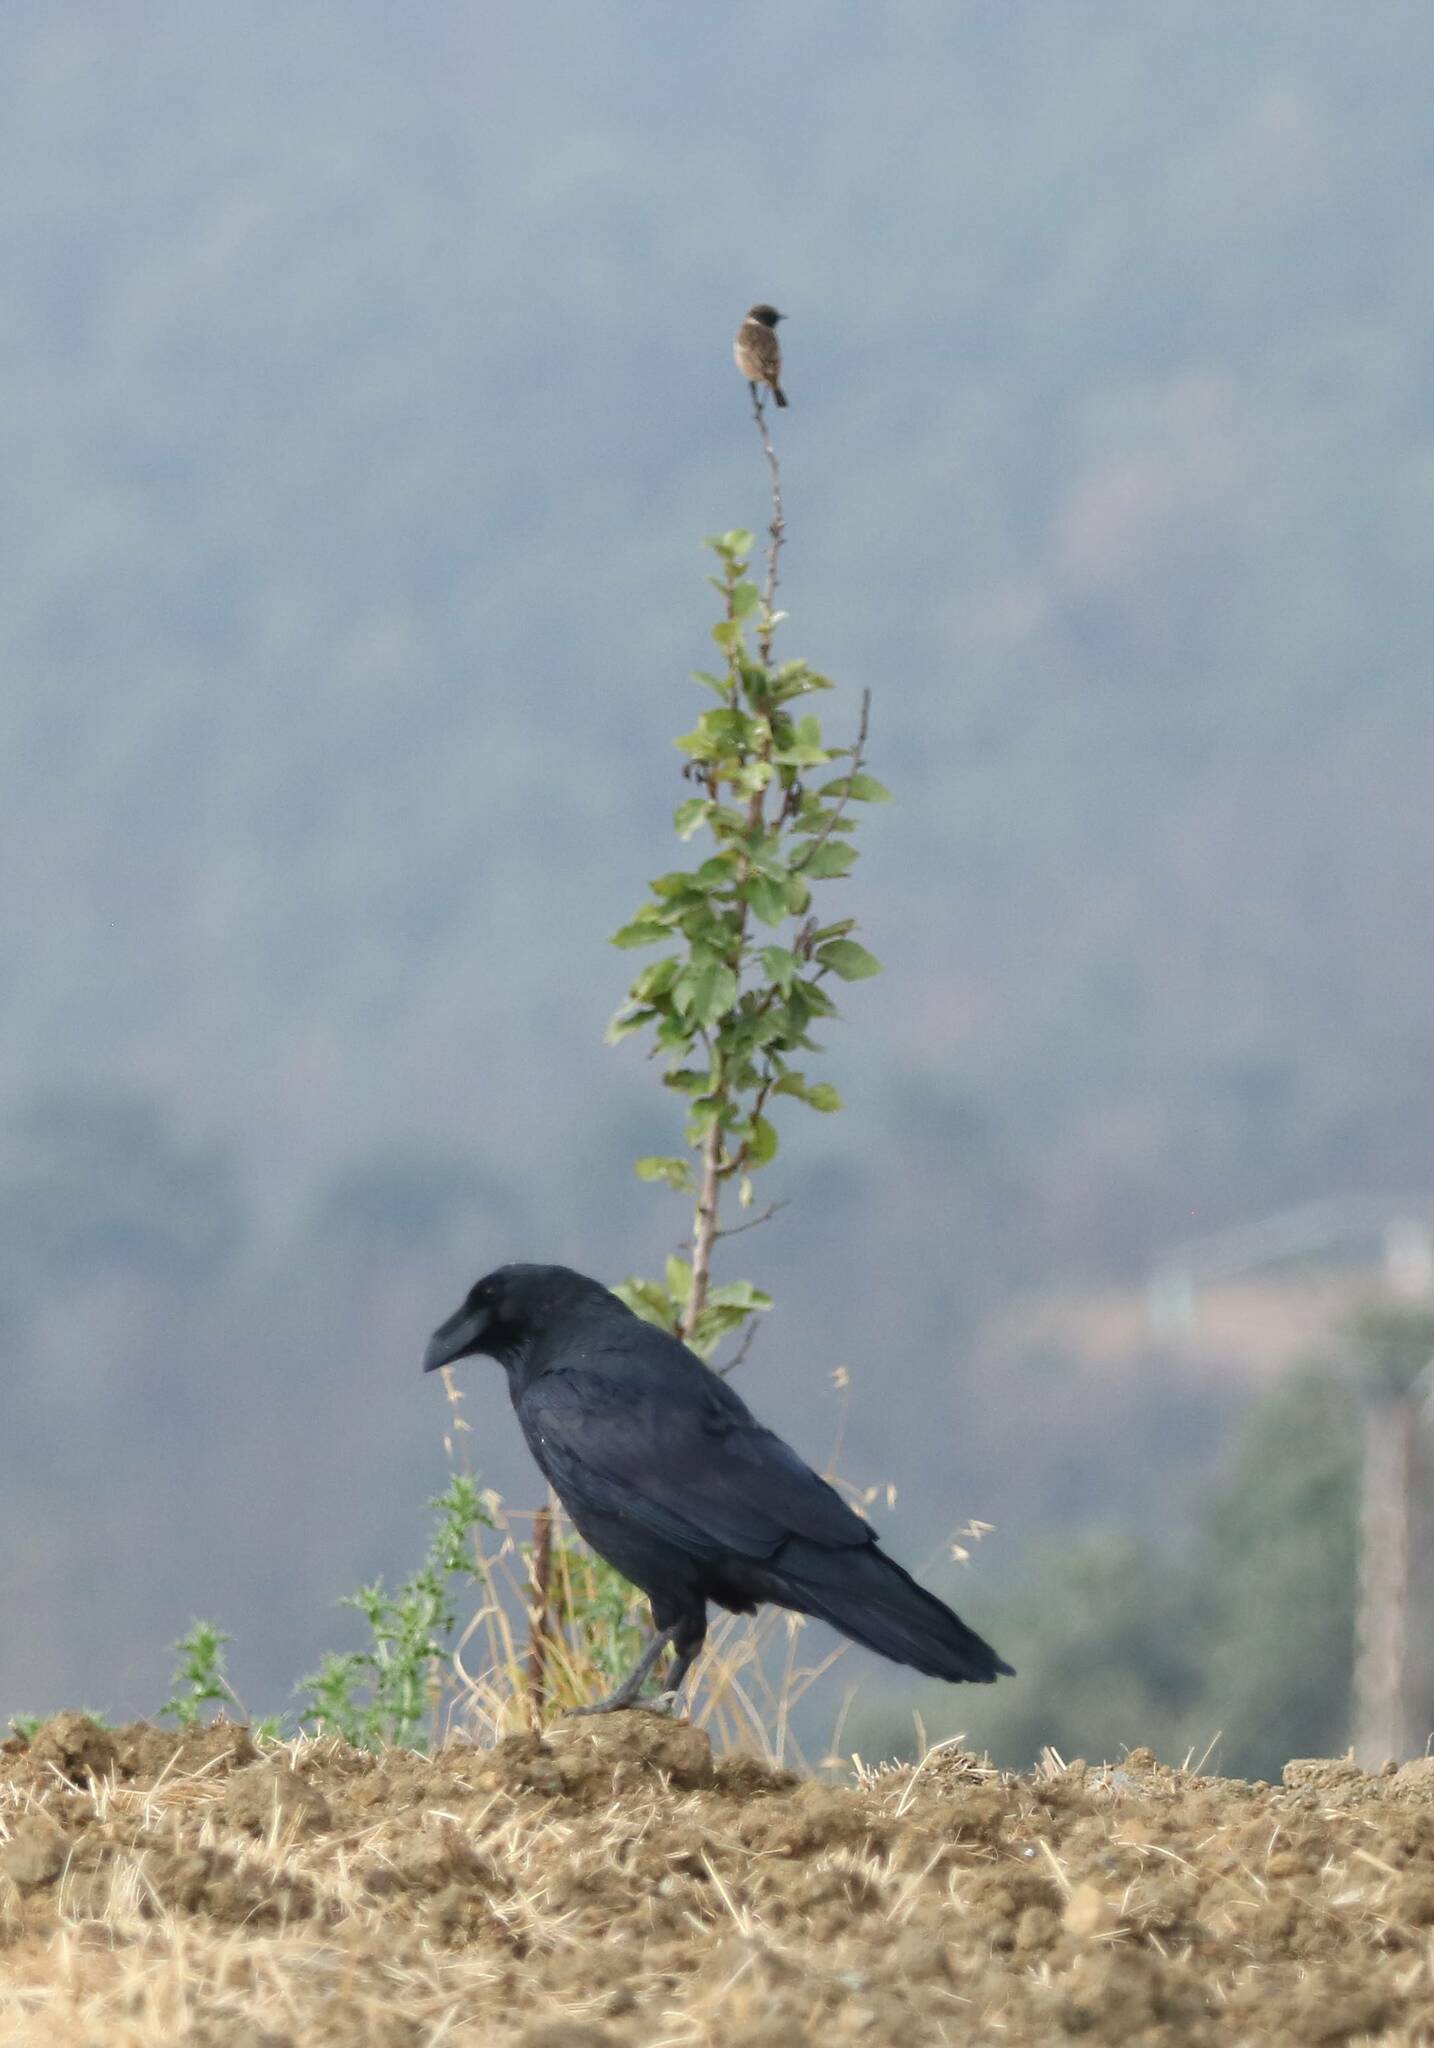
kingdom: Animalia
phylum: Chordata
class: Aves
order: Passeriformes
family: Corvidae
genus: Corvus
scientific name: Corvus corax
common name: Common raven
